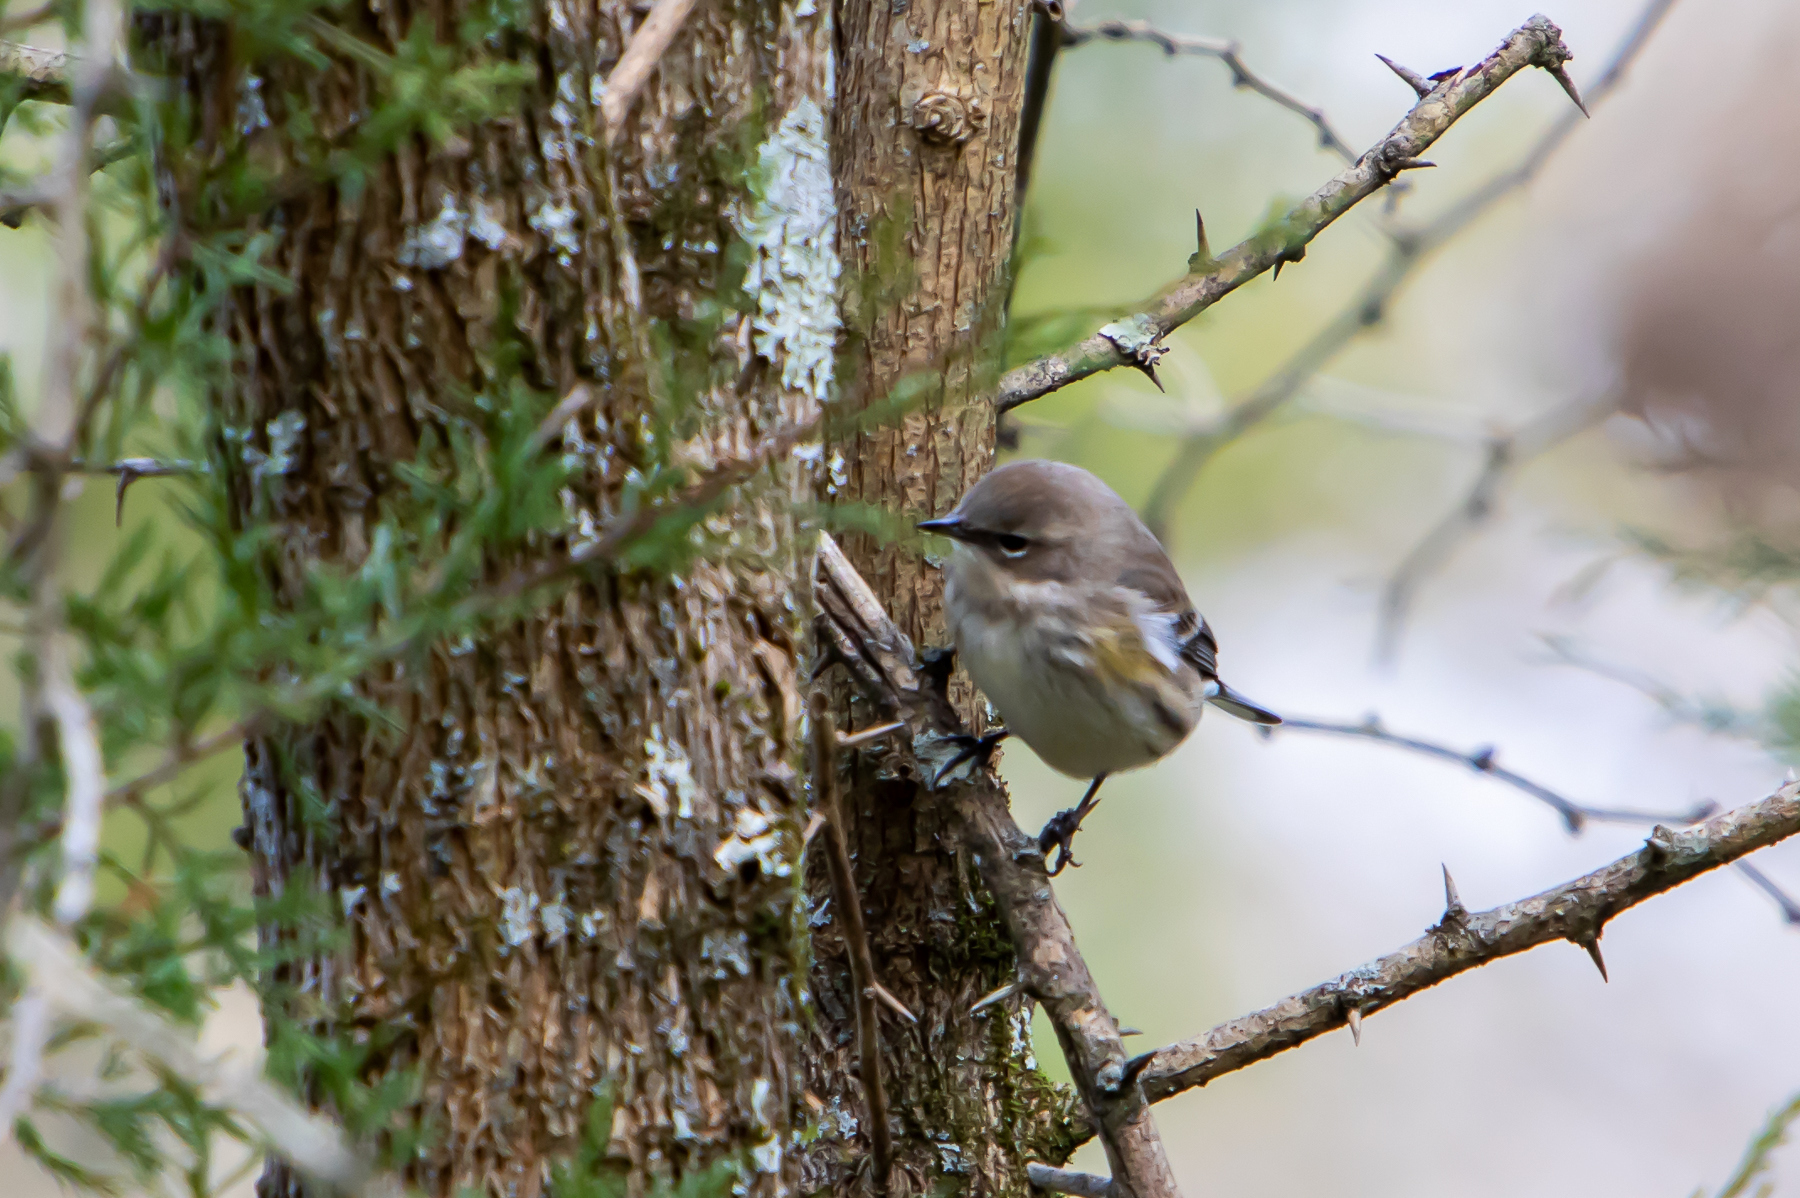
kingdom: Animalia
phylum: Chordata
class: Aves
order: Passeriformes
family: Parulidae
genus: Setophaga
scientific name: Setophaga coronata
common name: Myrtle warbler
